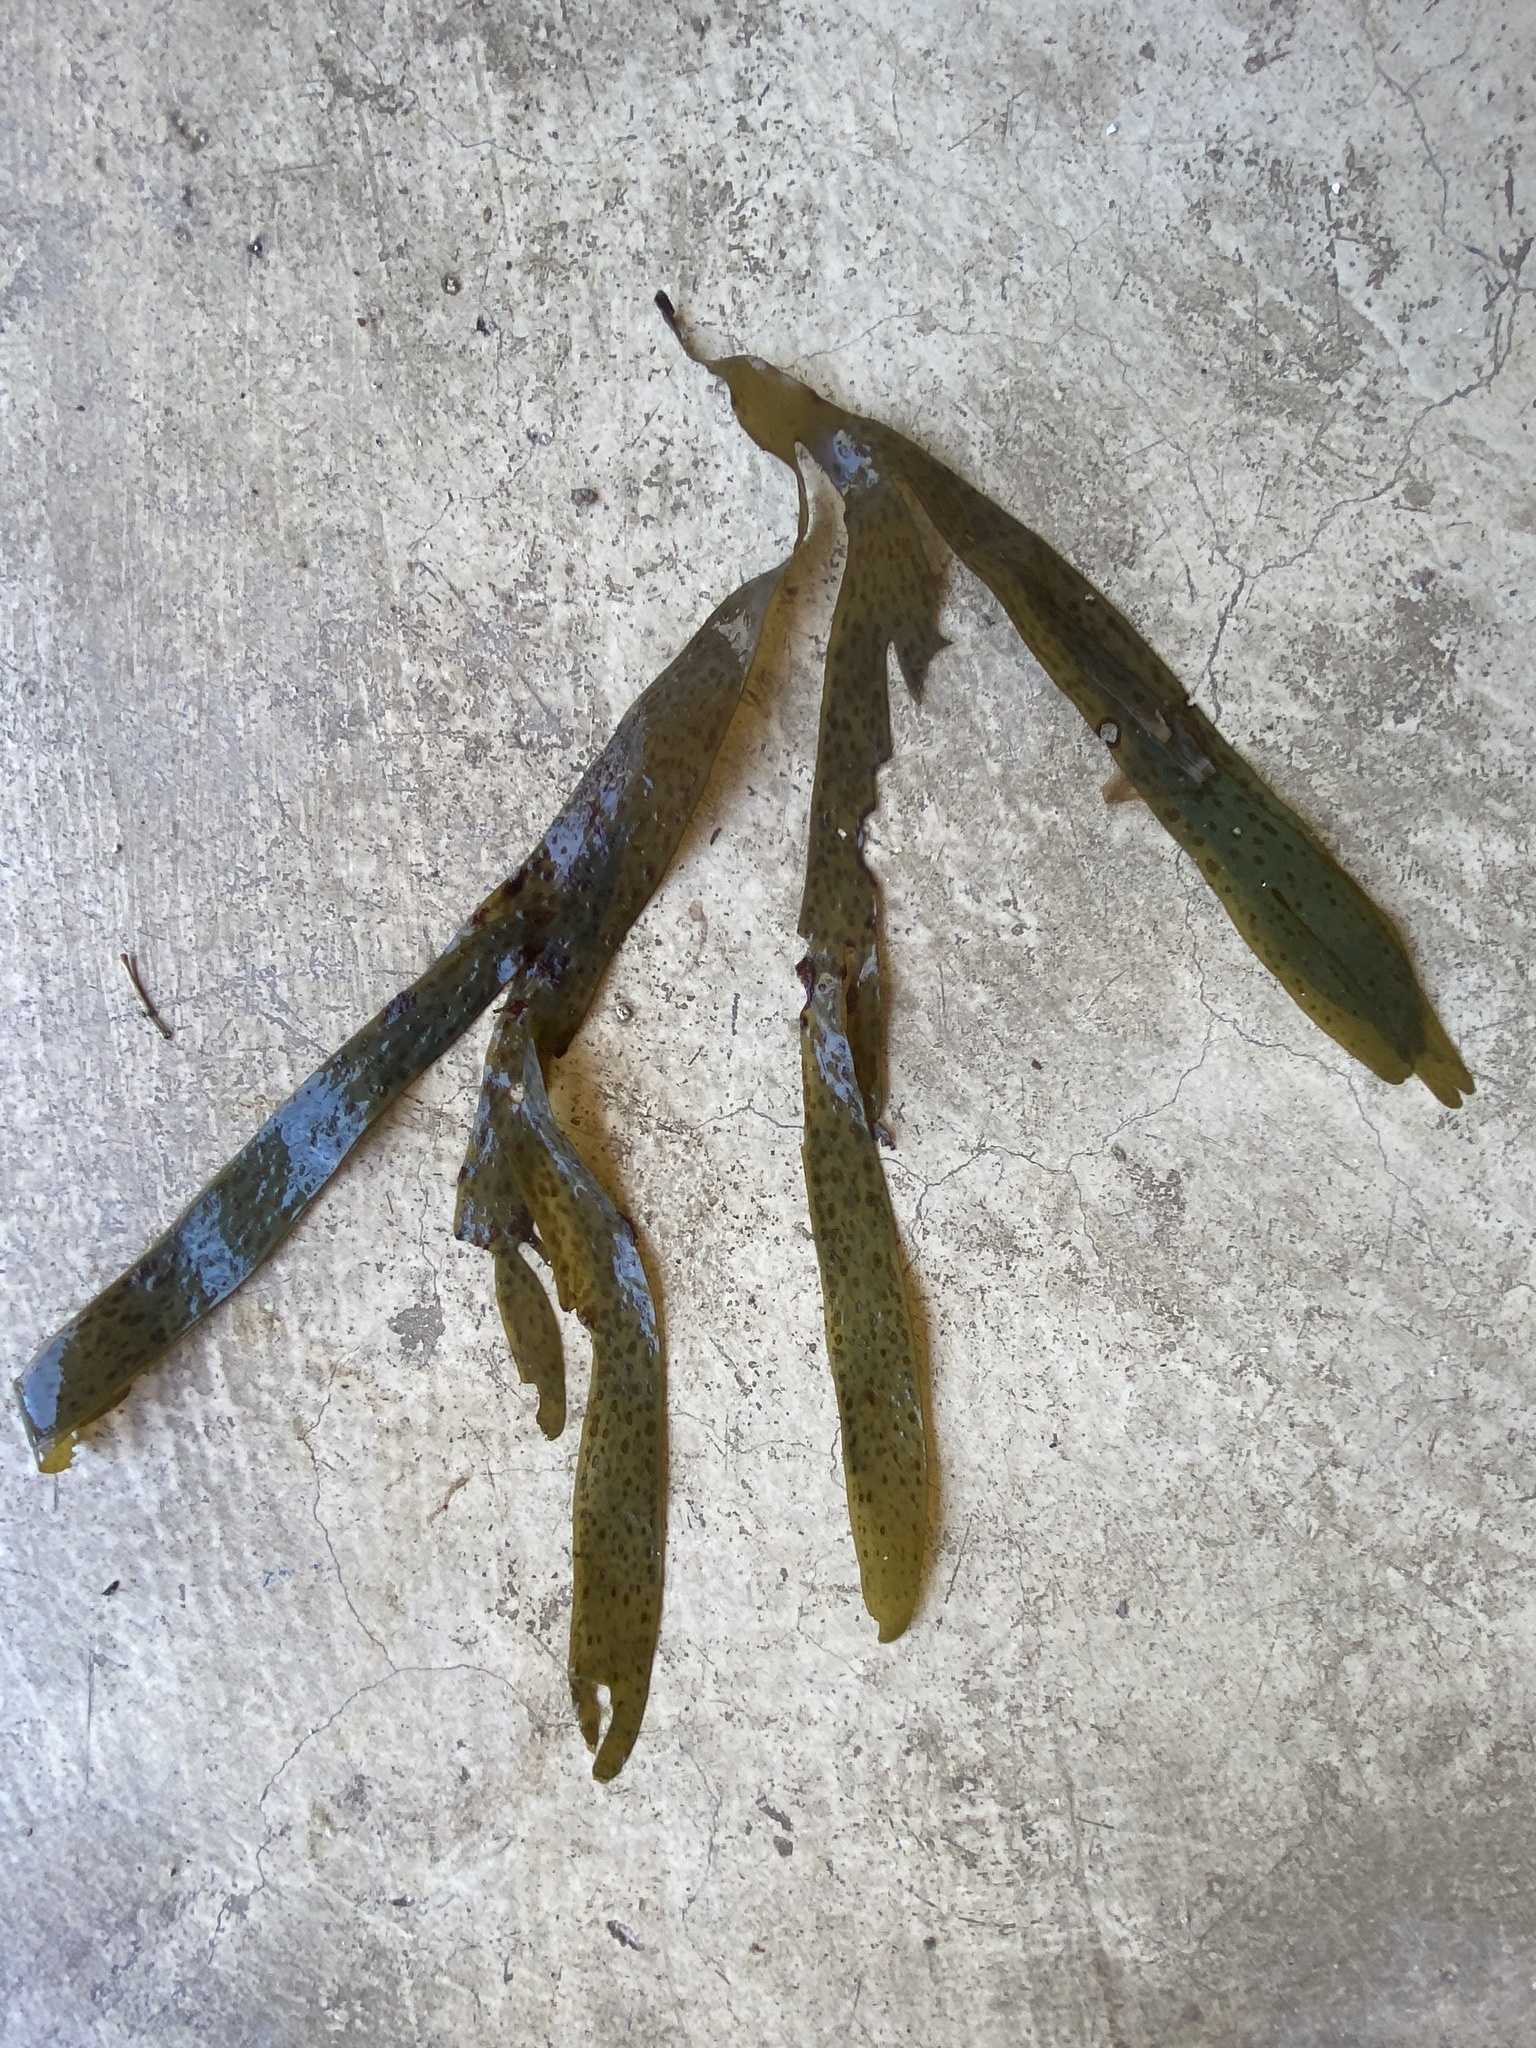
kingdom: Chromista
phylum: Ochrophyta
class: Phaeophyceae
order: Dictyotales
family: Dictyotaceae
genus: Dictyota
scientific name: Dictyota
